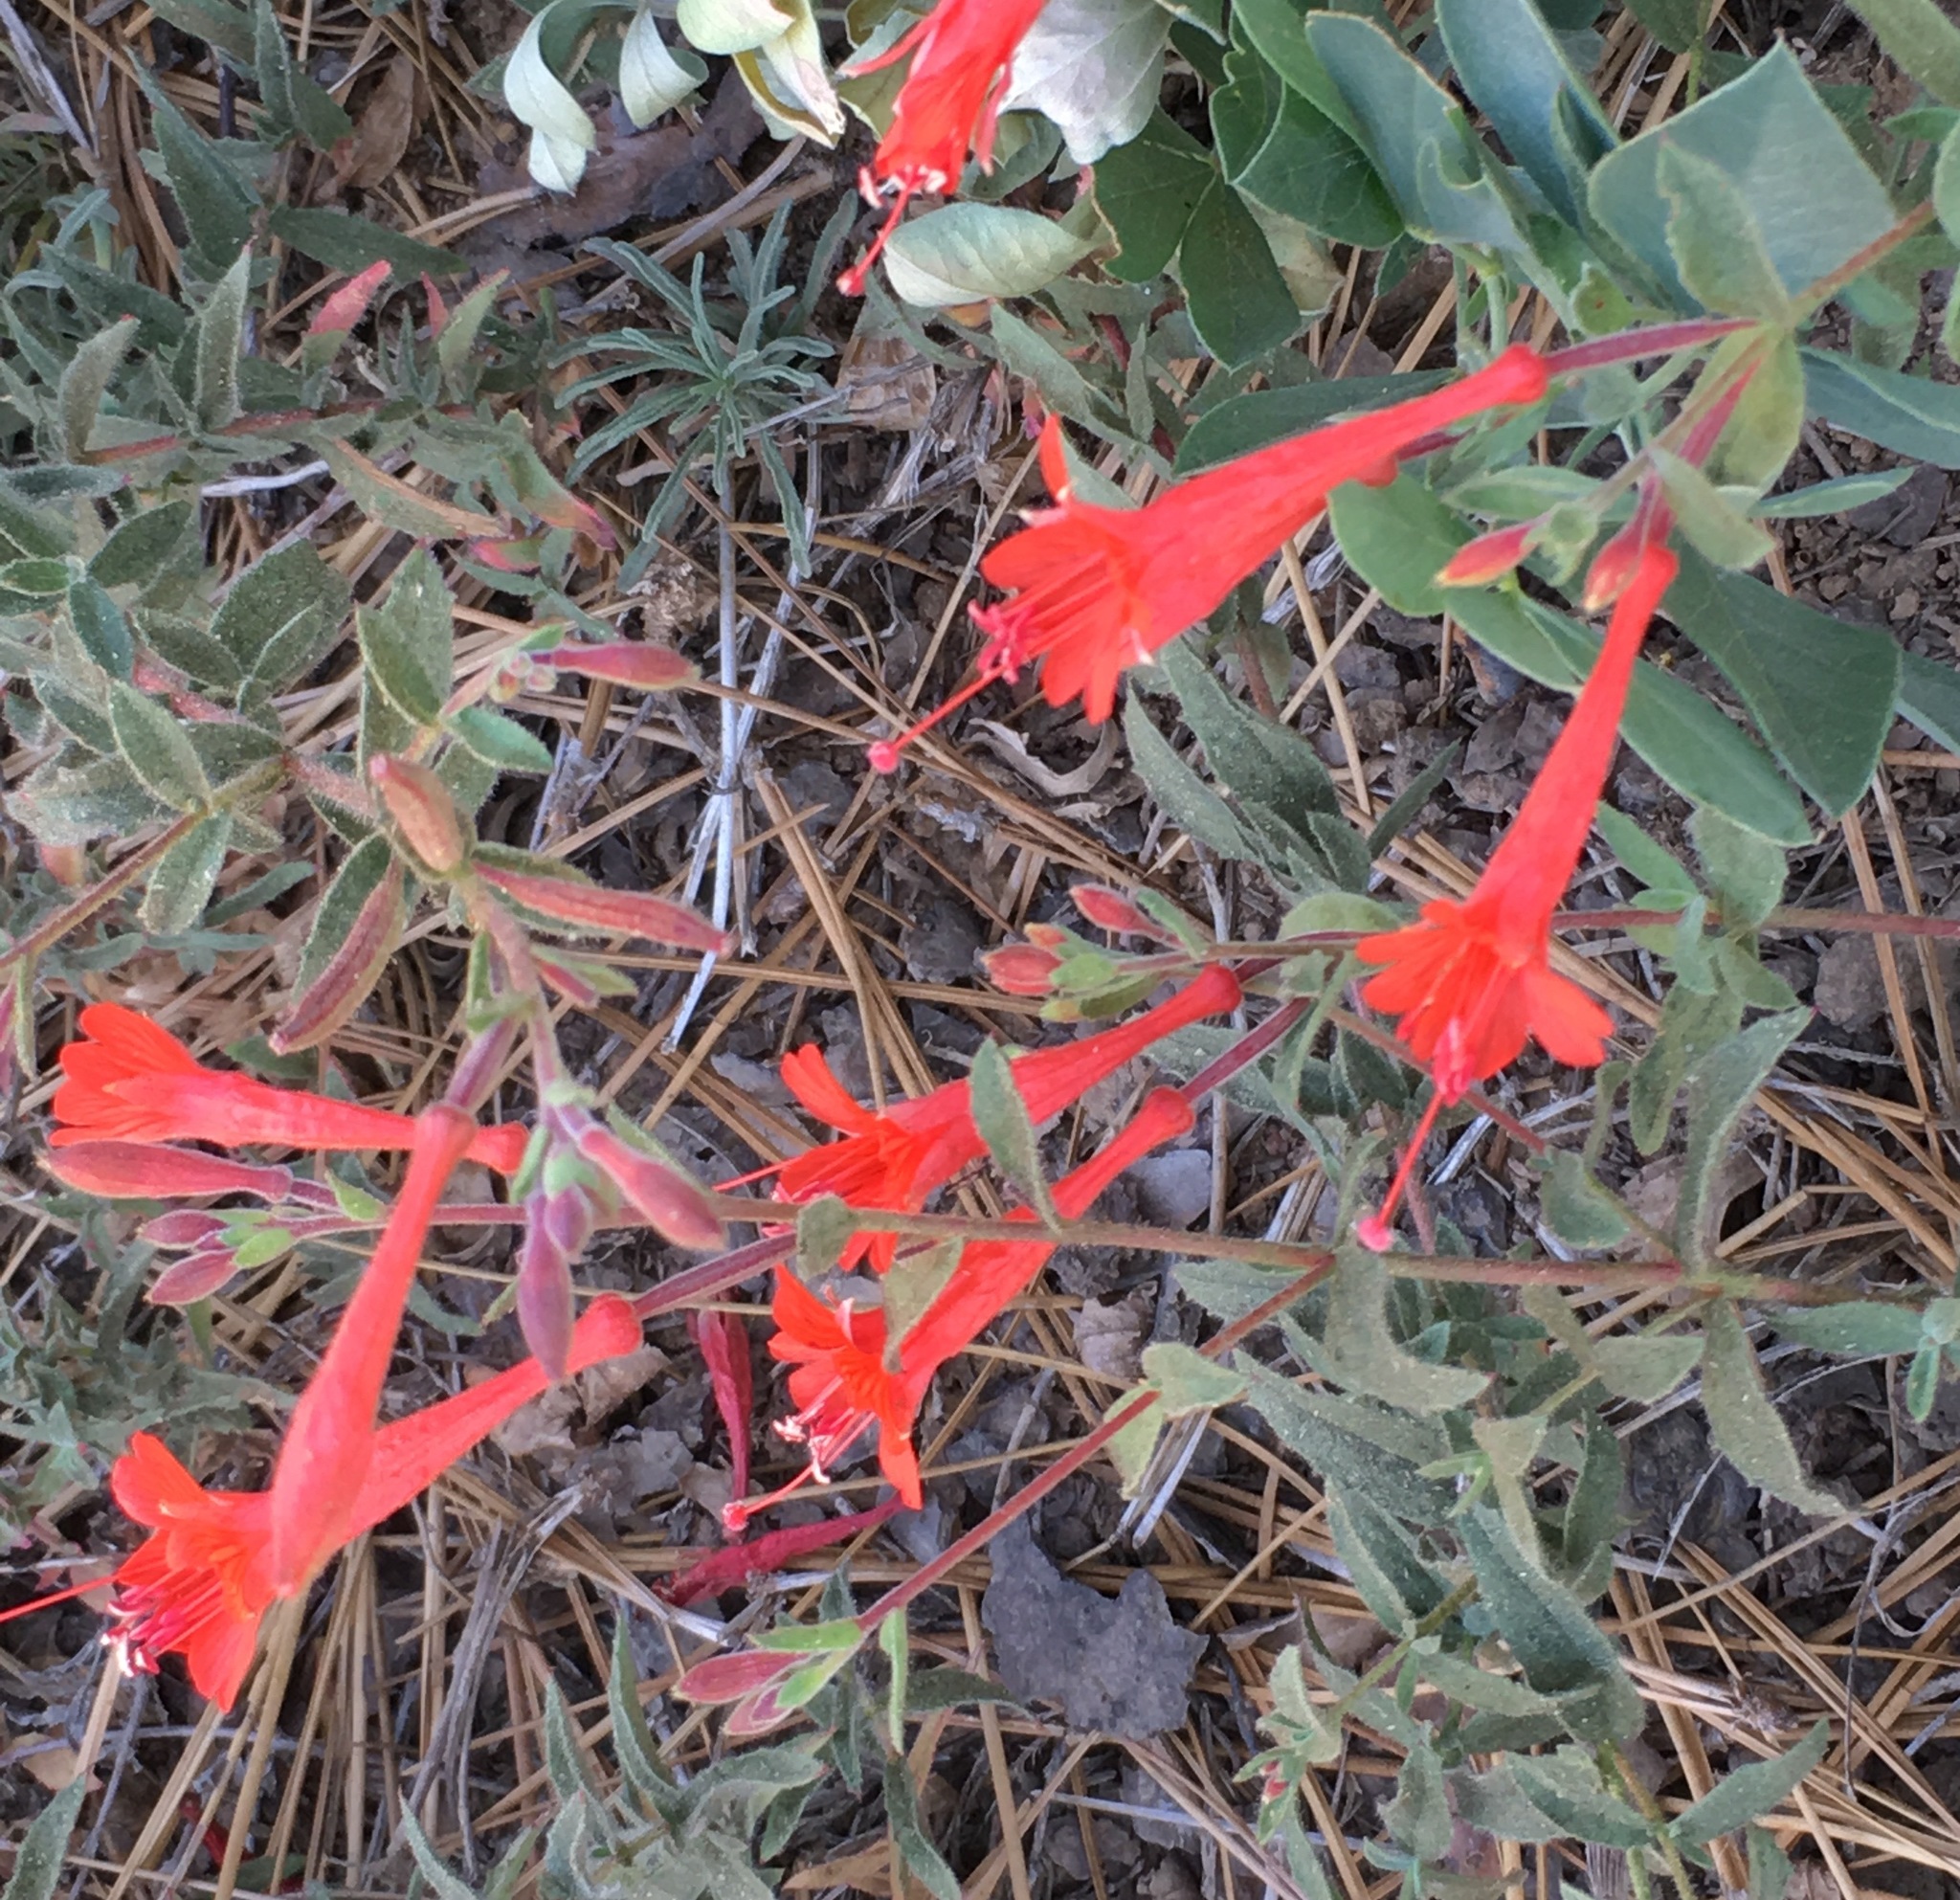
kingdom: Plantae
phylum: Tracheophyta
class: Magnoliopsida
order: Myrtales
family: Onagraceae
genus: Epilobium
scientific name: Epilobium canum
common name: California-fuchsia
